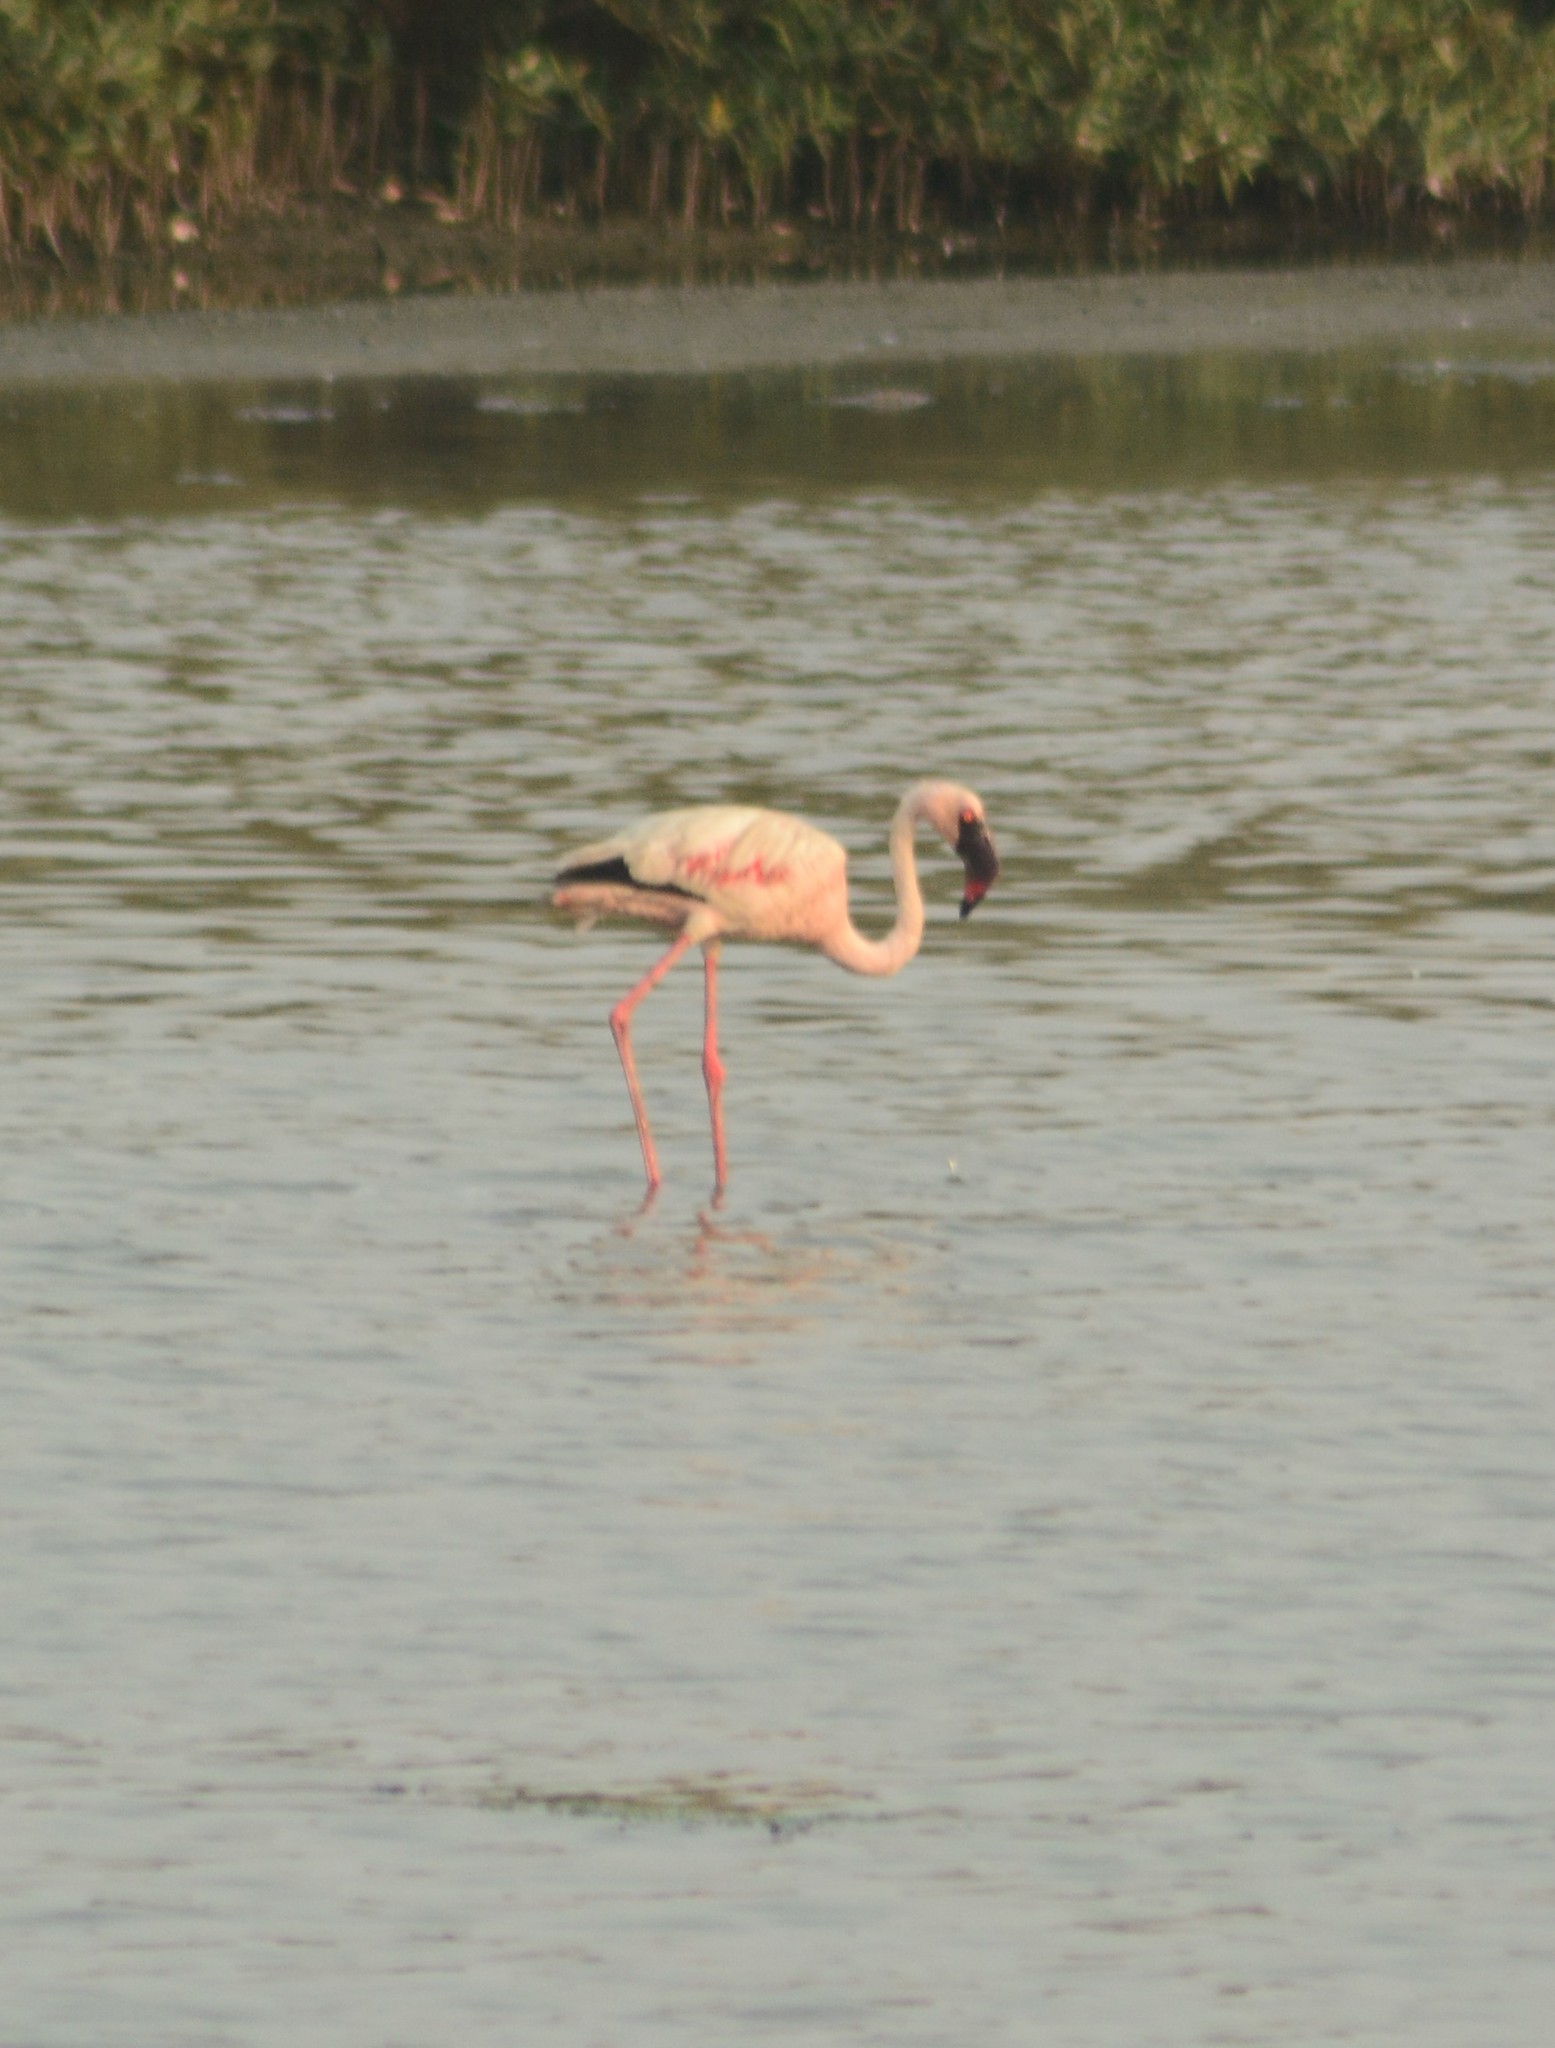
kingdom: Animalia
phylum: Chordata
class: Aves
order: Phoenicopteriformes
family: Phoenicopteridae
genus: Phoeniconaias
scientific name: Phoeniconaias minor
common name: Lesser flamingo
